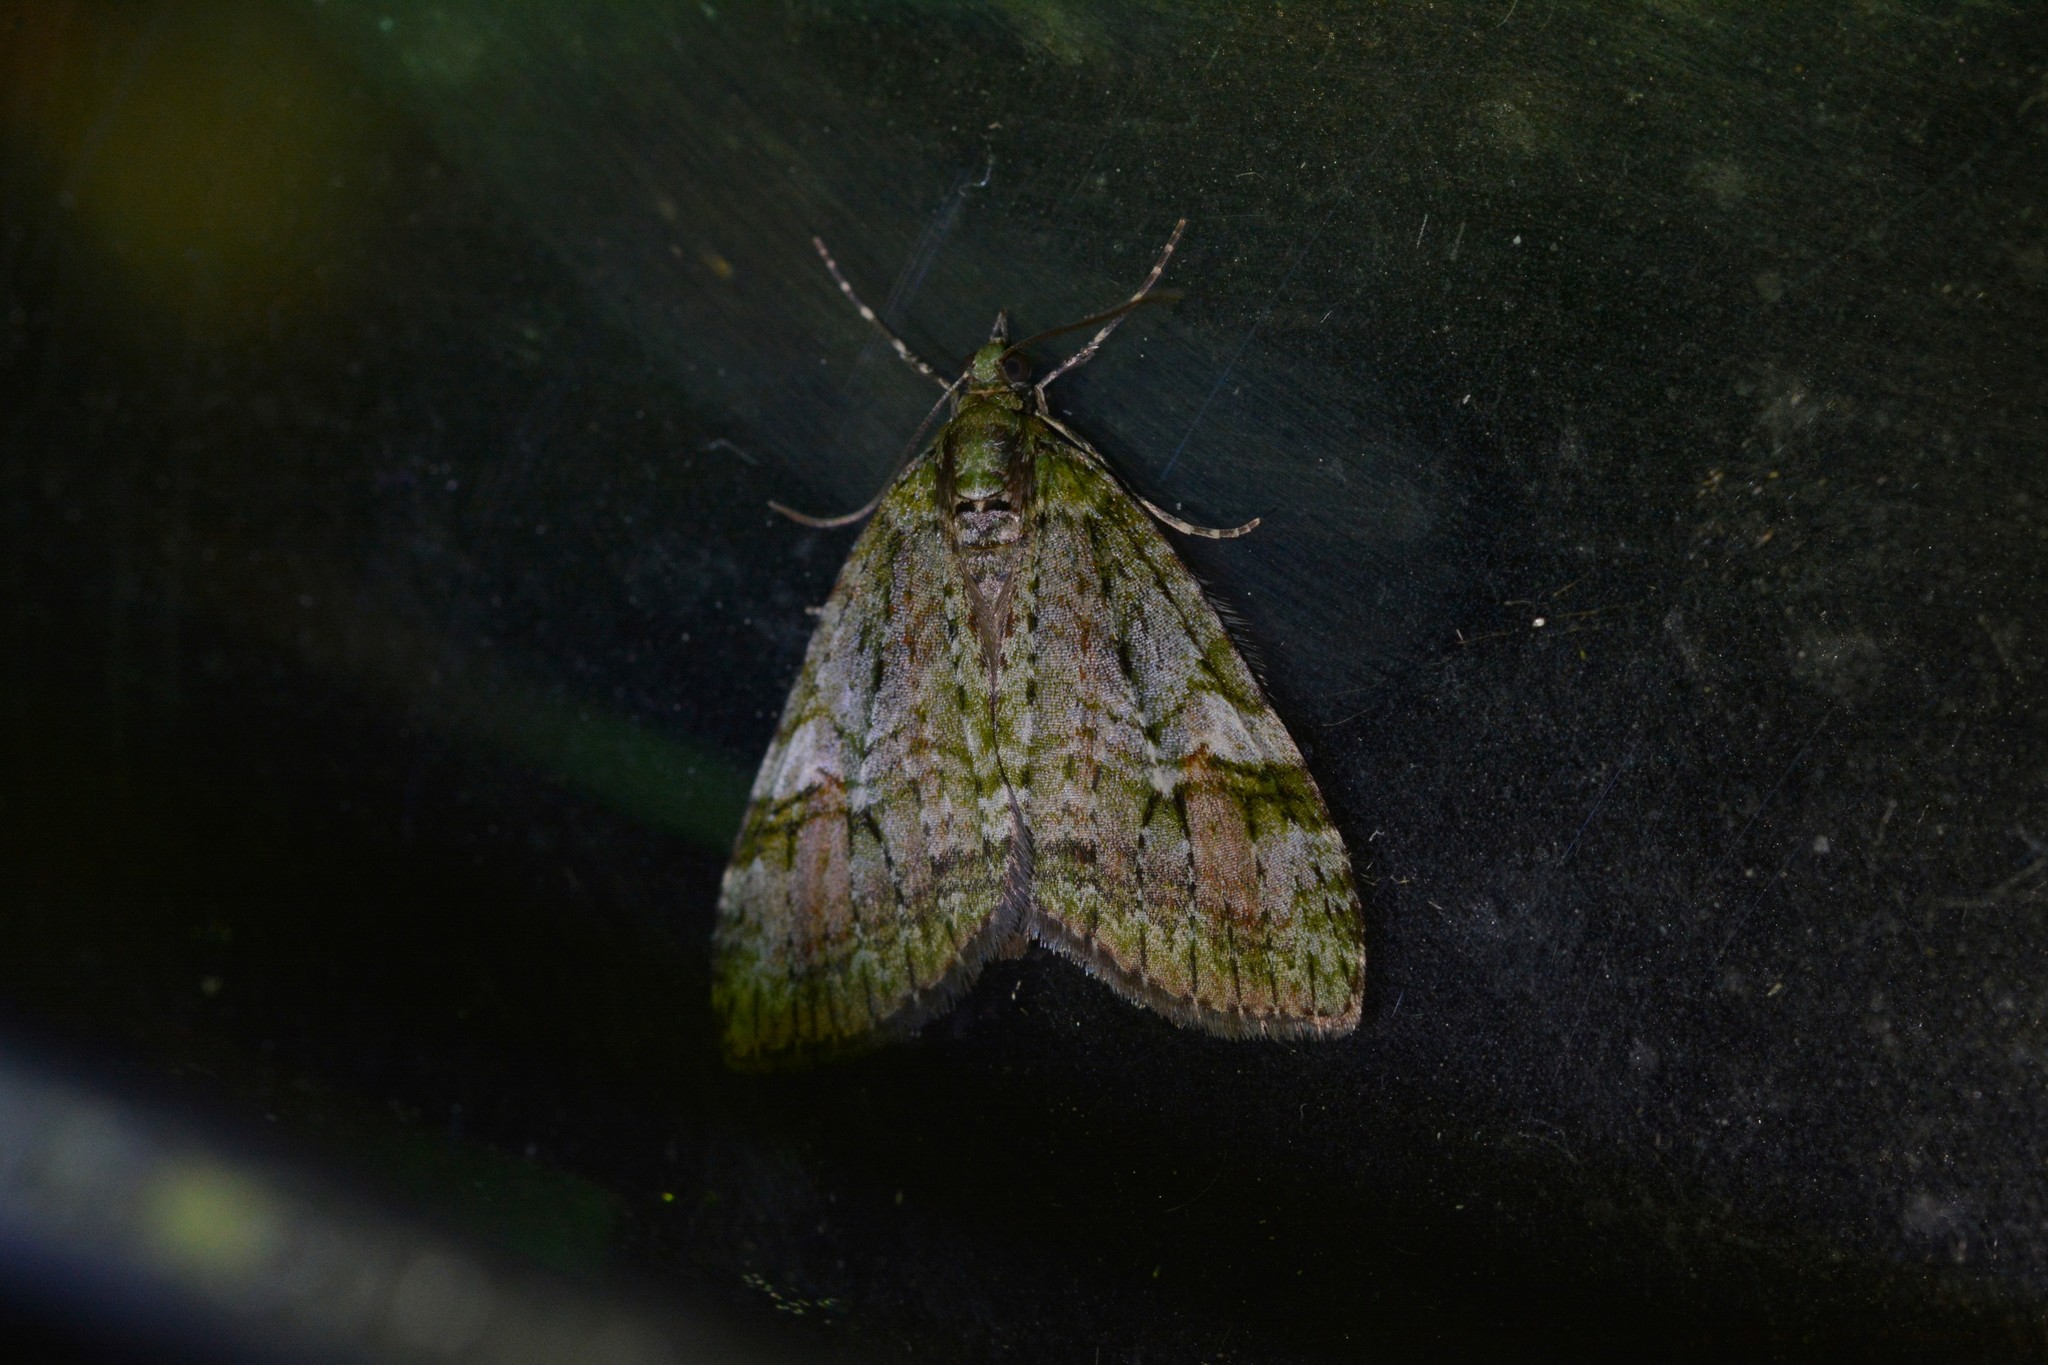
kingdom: Animalia
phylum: Arthropoda
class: Insecta
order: Lepidoptera
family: Geometridae
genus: Tatosoma
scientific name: Tatosoma topea
